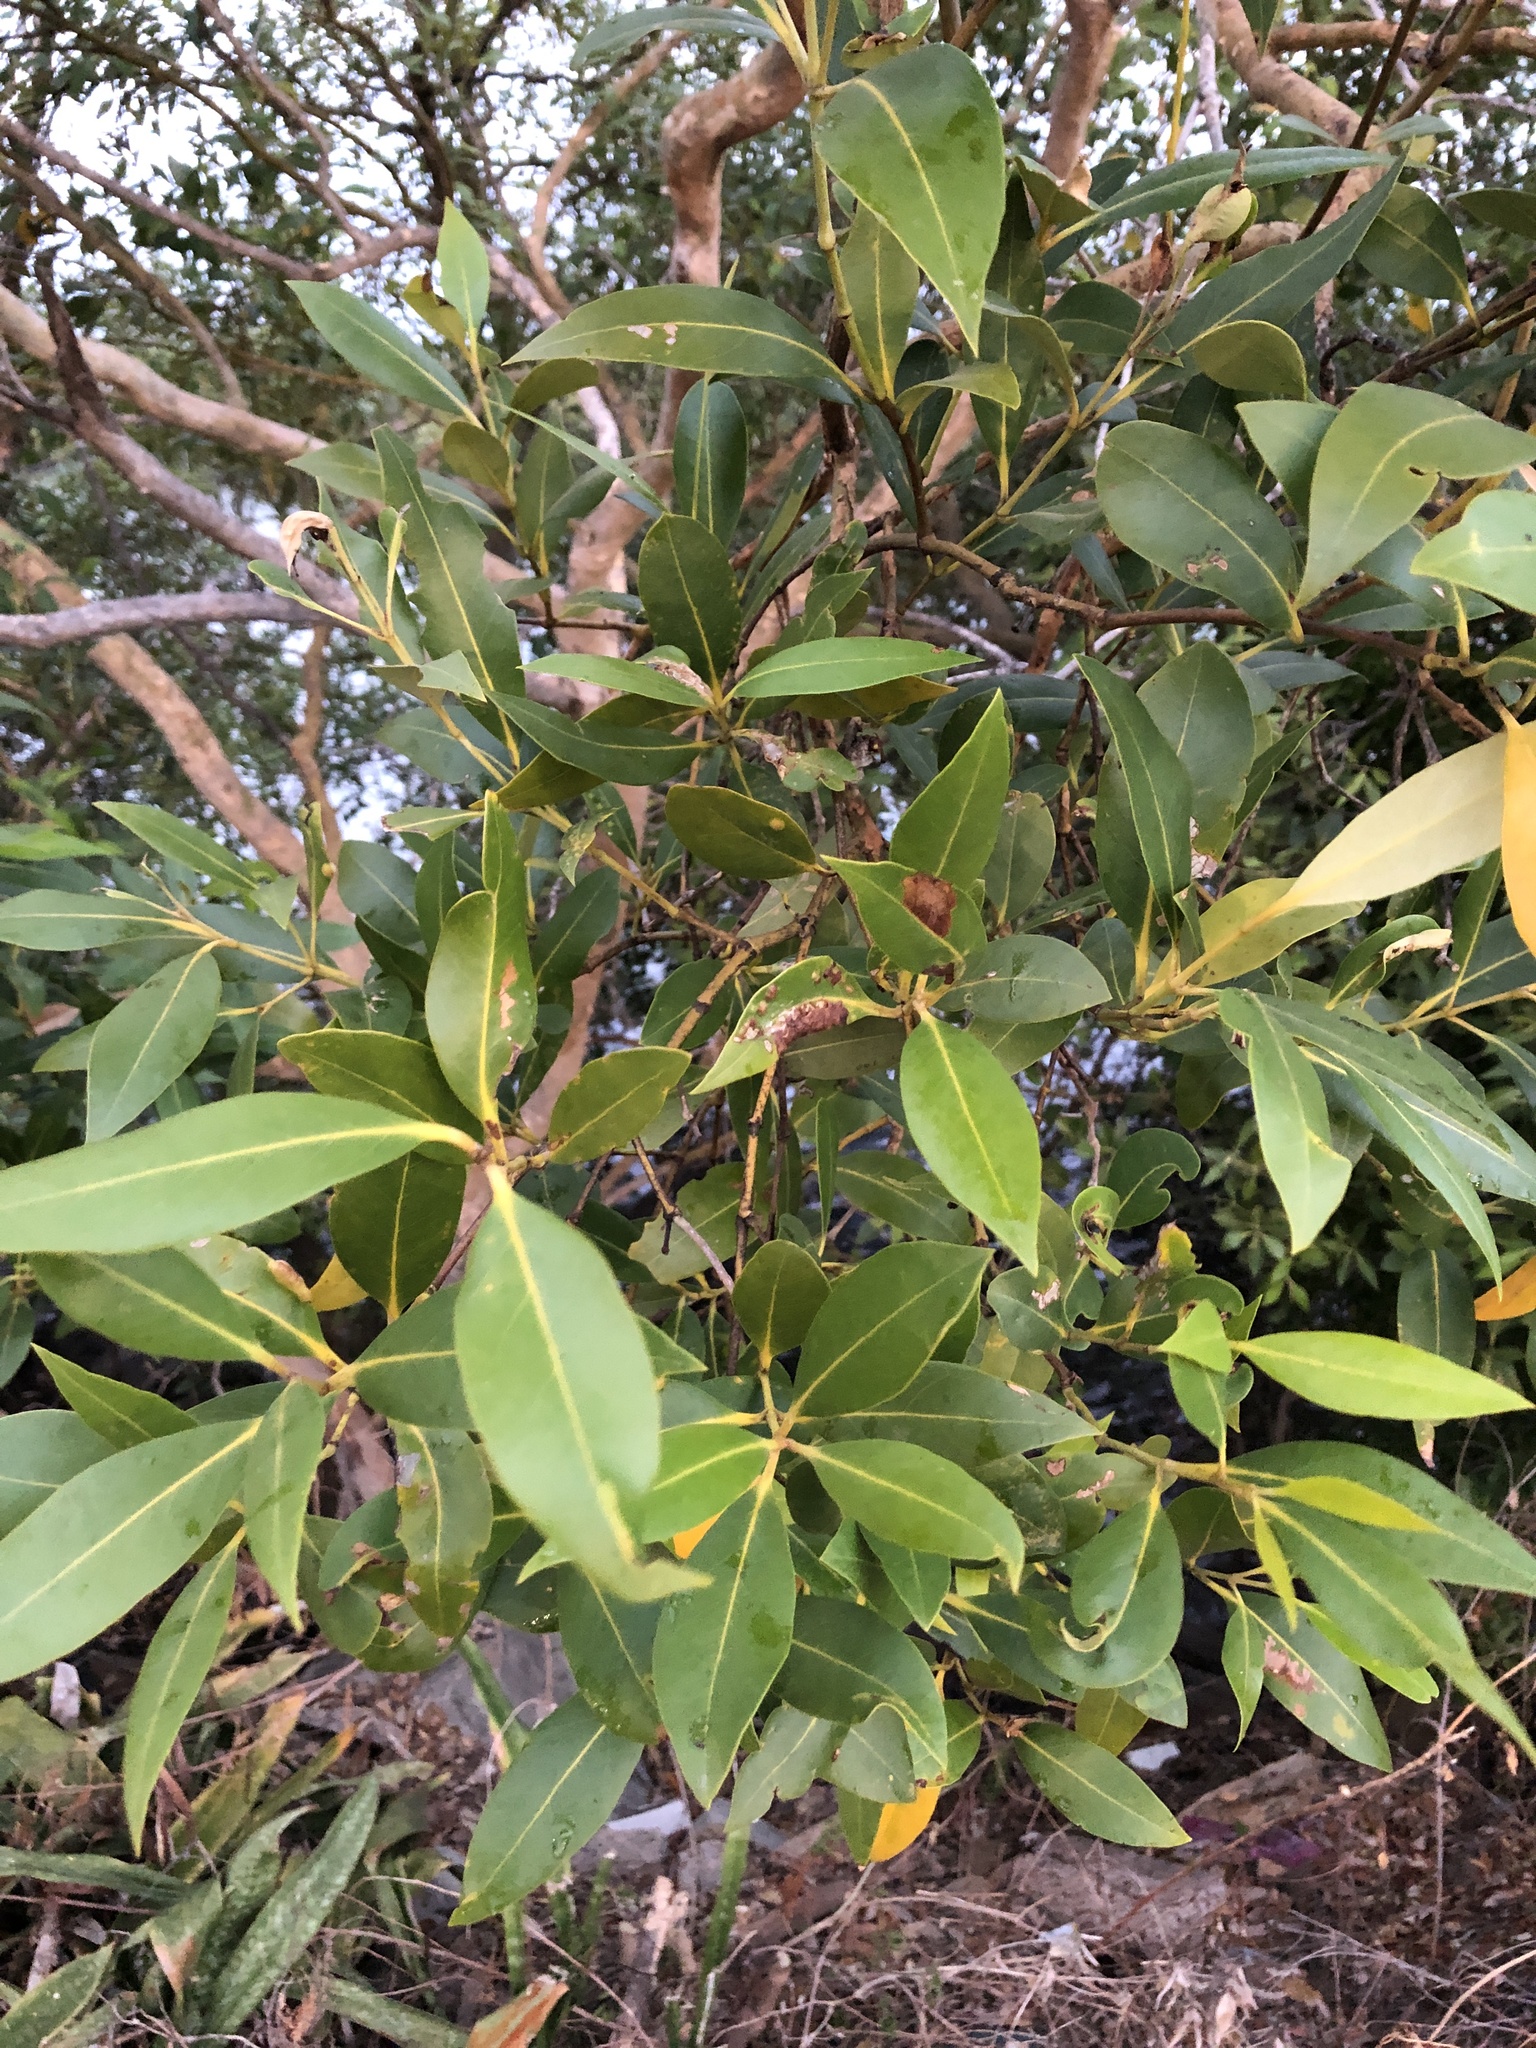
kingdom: Plantae
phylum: Tracheophyta
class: Magnoliopsida
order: Lamiales
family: Acanthaceae
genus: Avicennia
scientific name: Avicennia marina
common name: Gray mangrove
